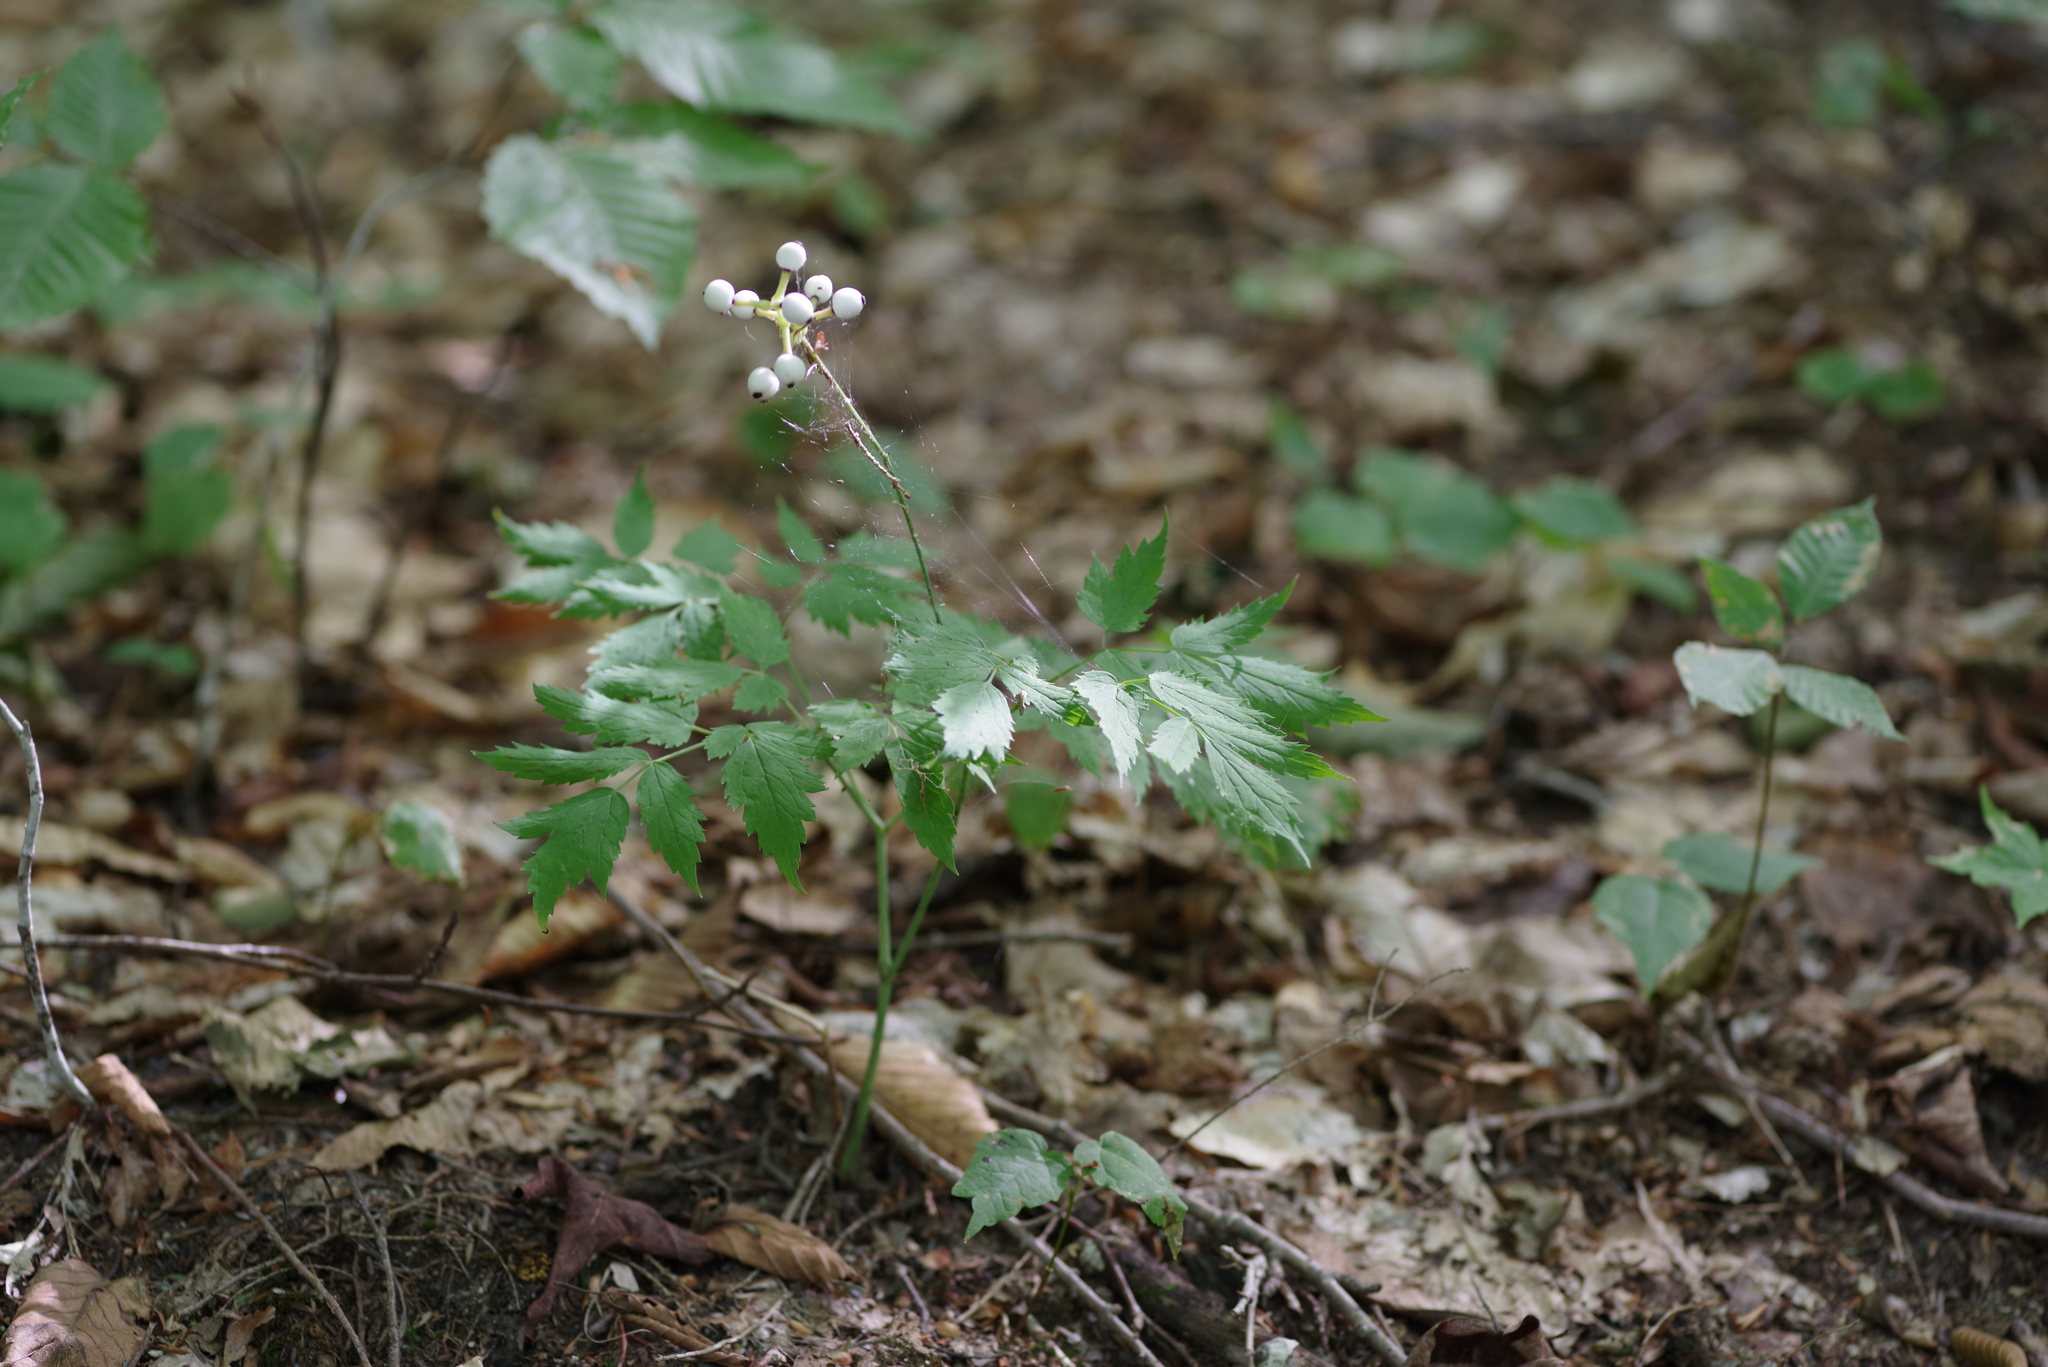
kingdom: Plantae
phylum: Tracheophyta
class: Magnoliopsida
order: Ranunculales
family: Ranunculaceae
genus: Actaea
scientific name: Actaea pachypoda
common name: Doll's-eyes
